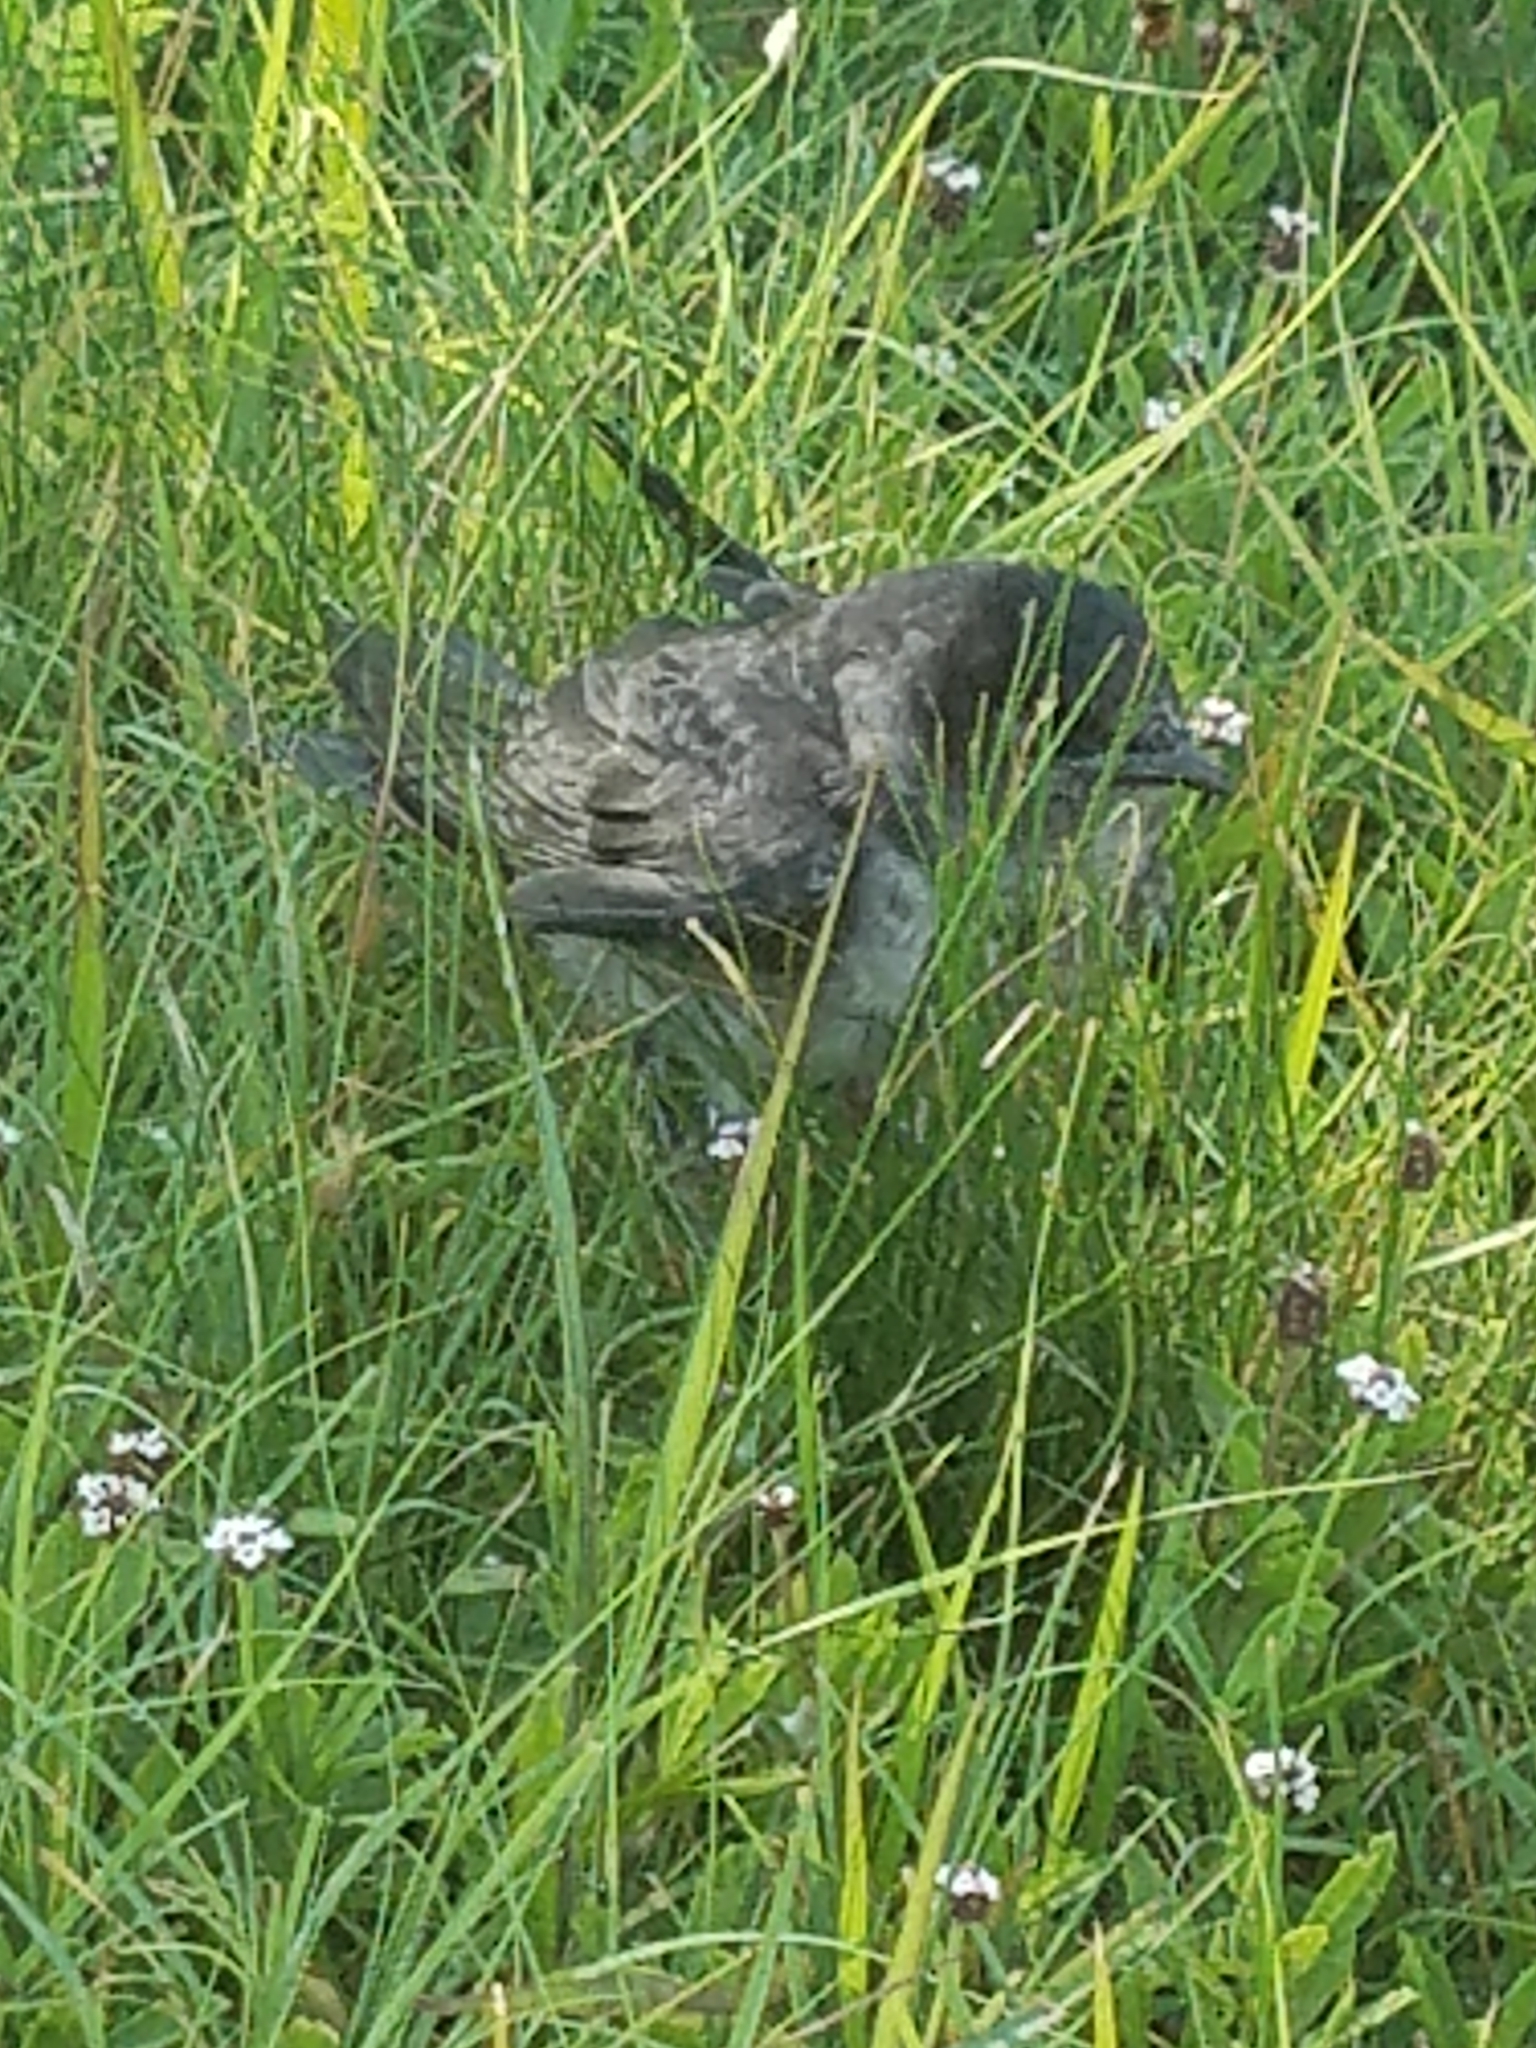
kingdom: Animalia
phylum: Chordata
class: Aves
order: Passeriformes
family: Hirundinidae
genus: Progne
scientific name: Progne subis
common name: Purple martin
